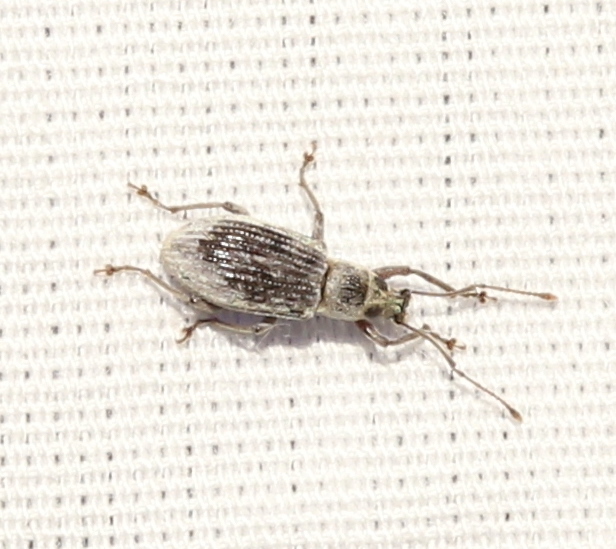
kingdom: Animalia
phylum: Arthropoda
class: Insecta
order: Coleoptera
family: Curculionidae
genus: Cyrtepistomus
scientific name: Cyrtepistomus castaneus
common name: Weevil
